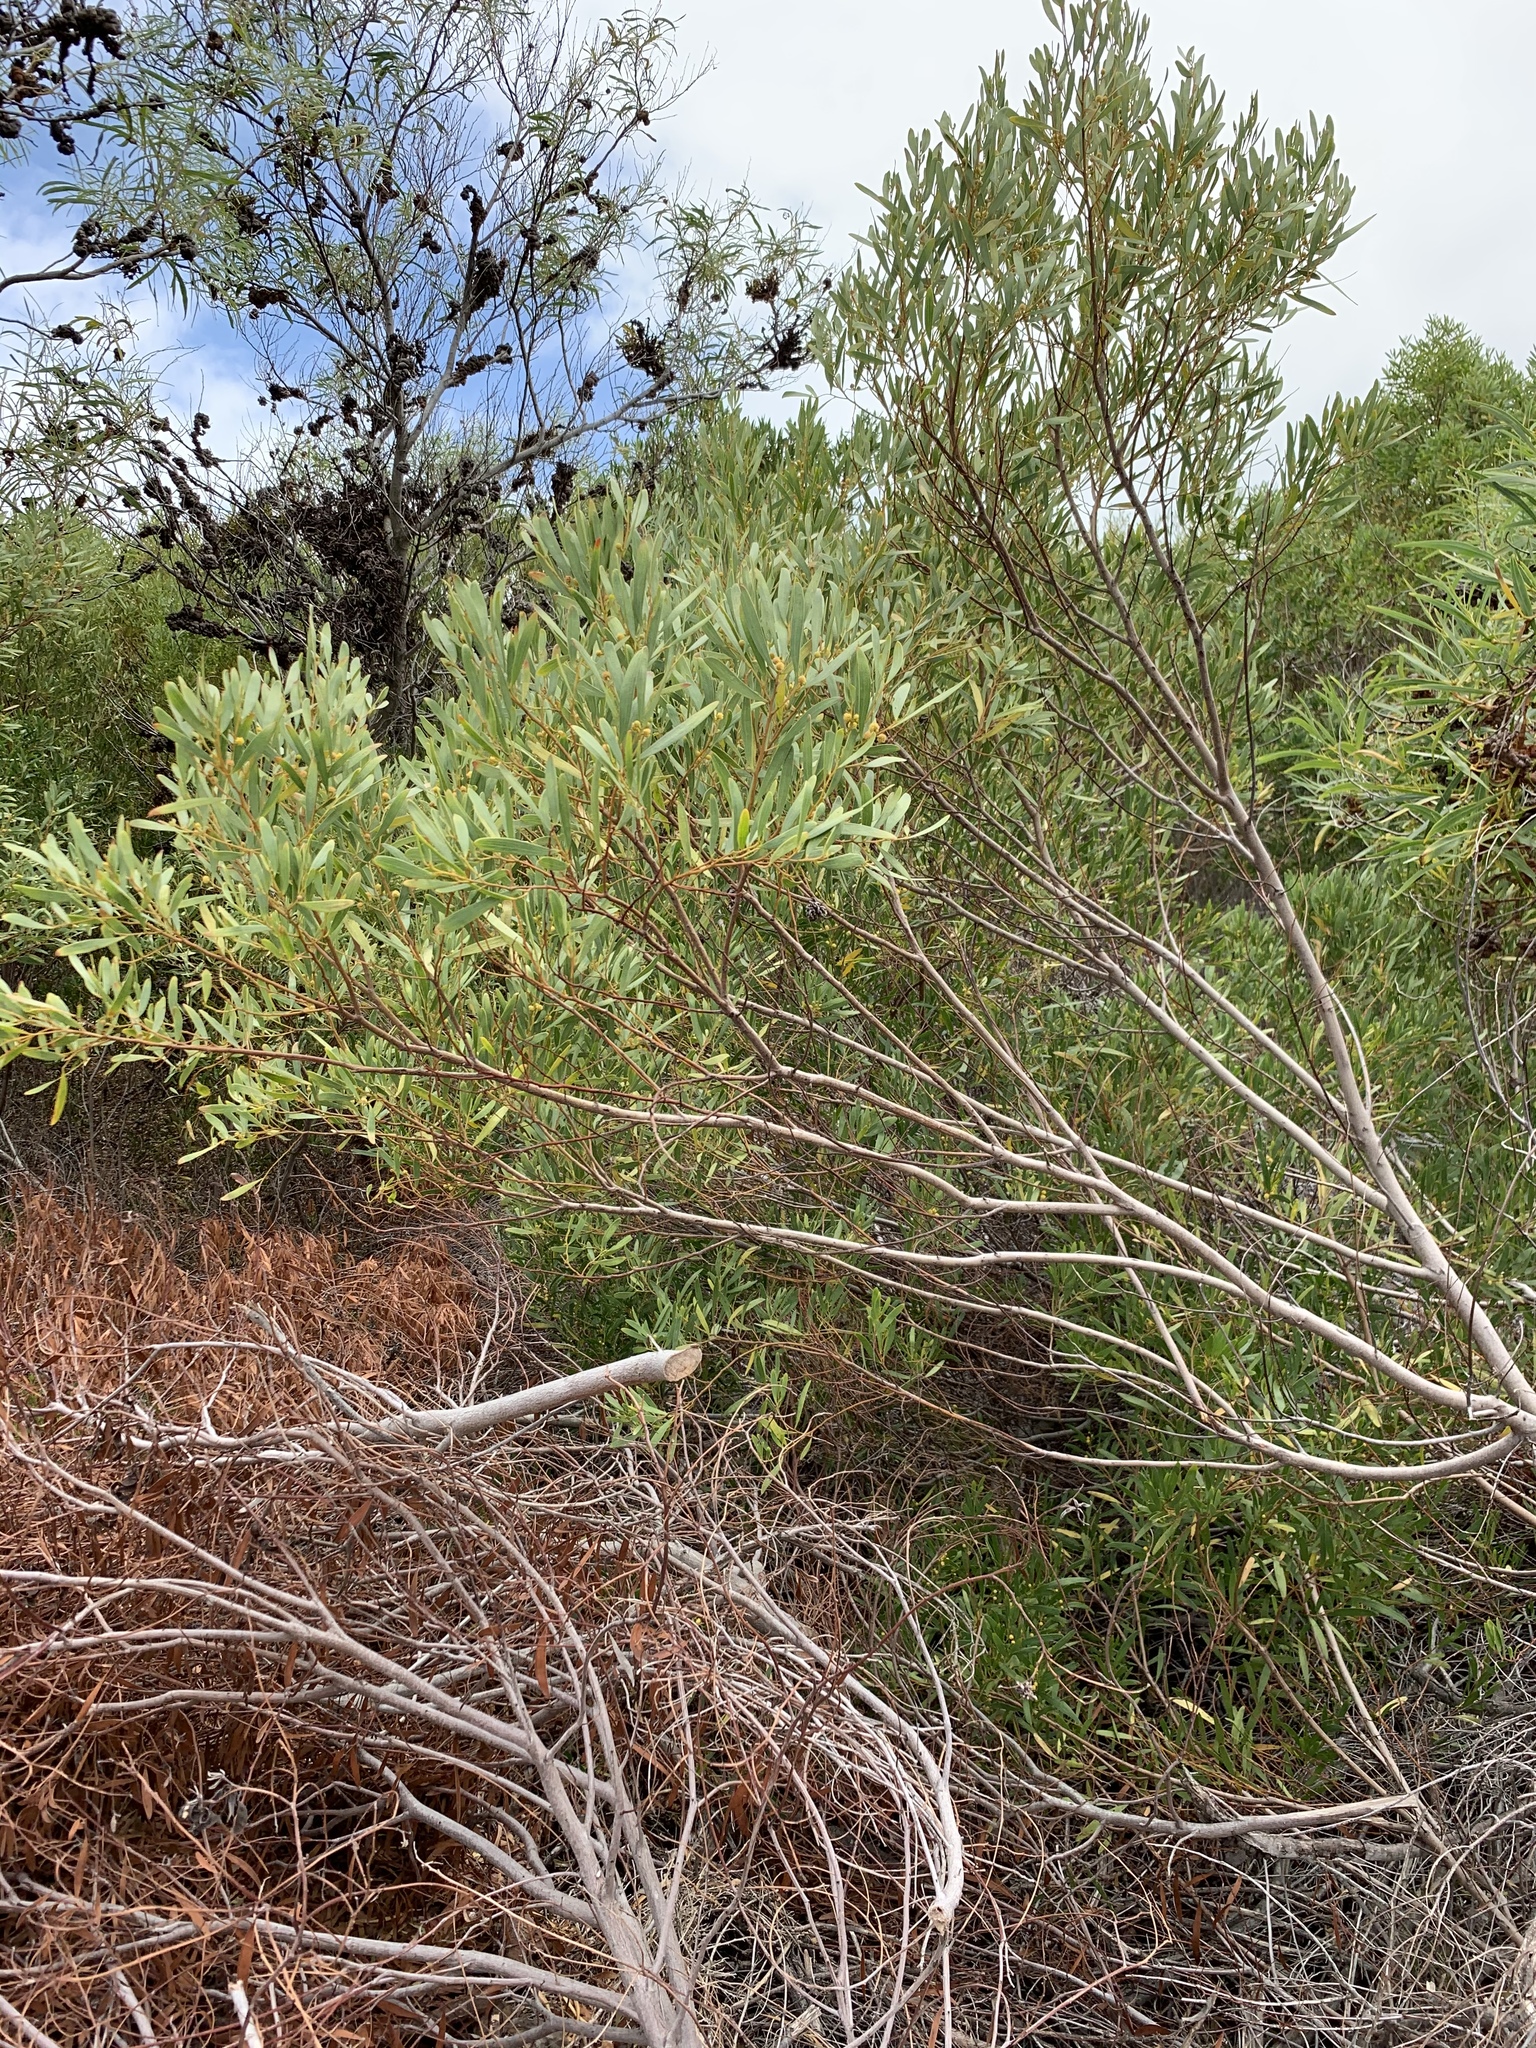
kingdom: Plantae
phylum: Tracheophyta
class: Magnoliopsida
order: Fabales
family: Fabaceae
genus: Acacia
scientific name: Acacia cyclops
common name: Coastal wattle
